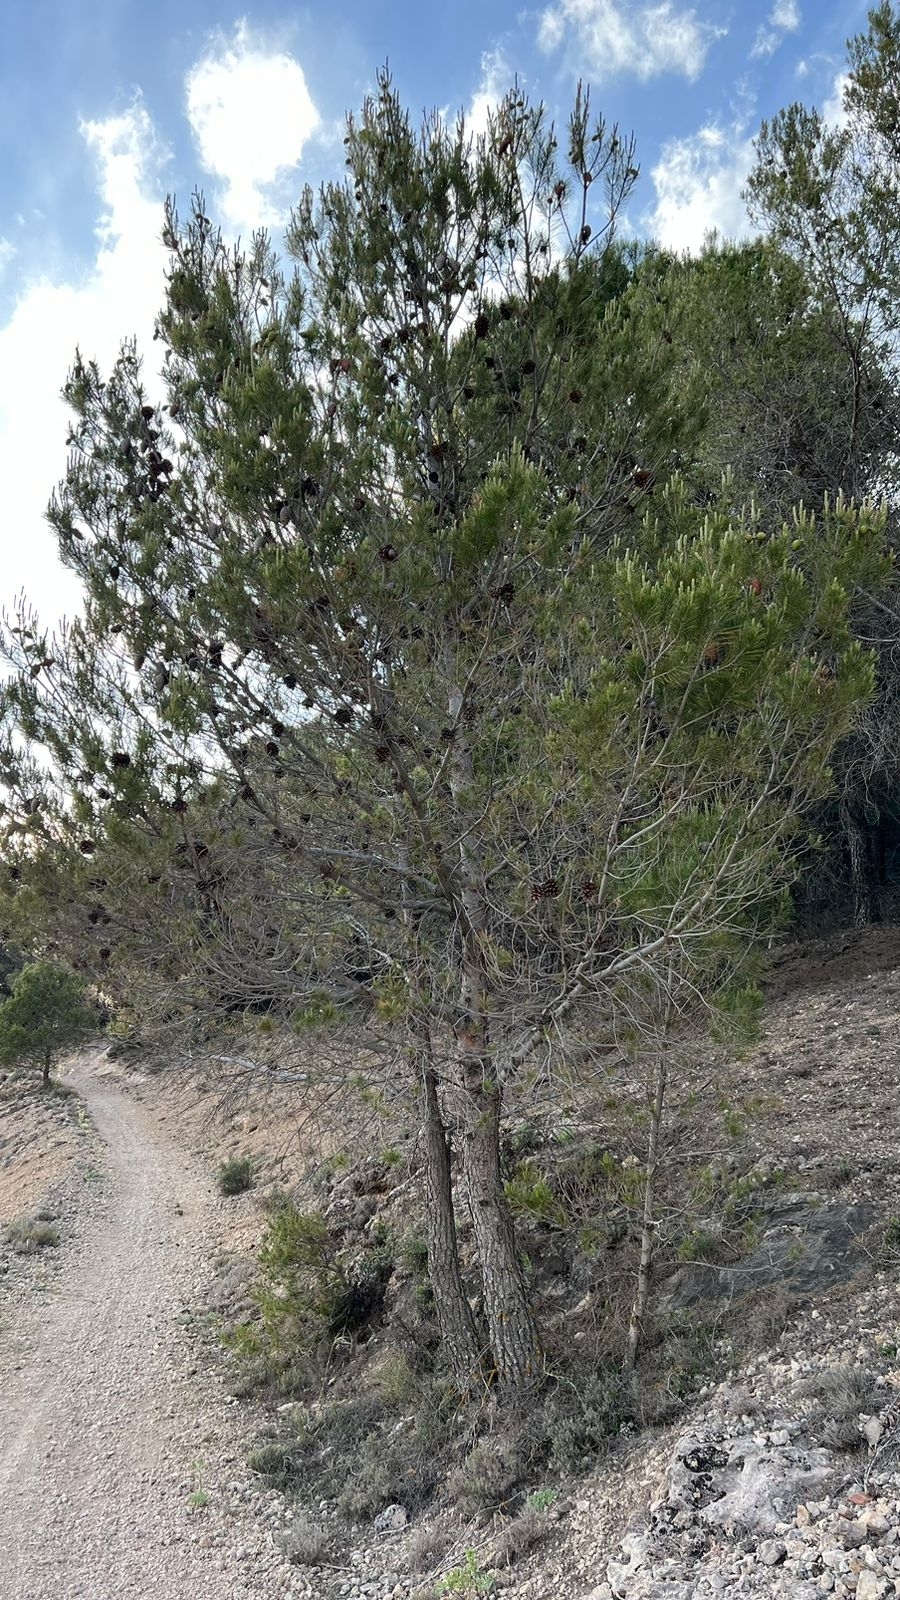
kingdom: Plantae
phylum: Tracheophyta
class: Pinopsida
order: Pinales
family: Pinaceae
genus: Pinus
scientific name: Pinus halepensis
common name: Aleppo pine
